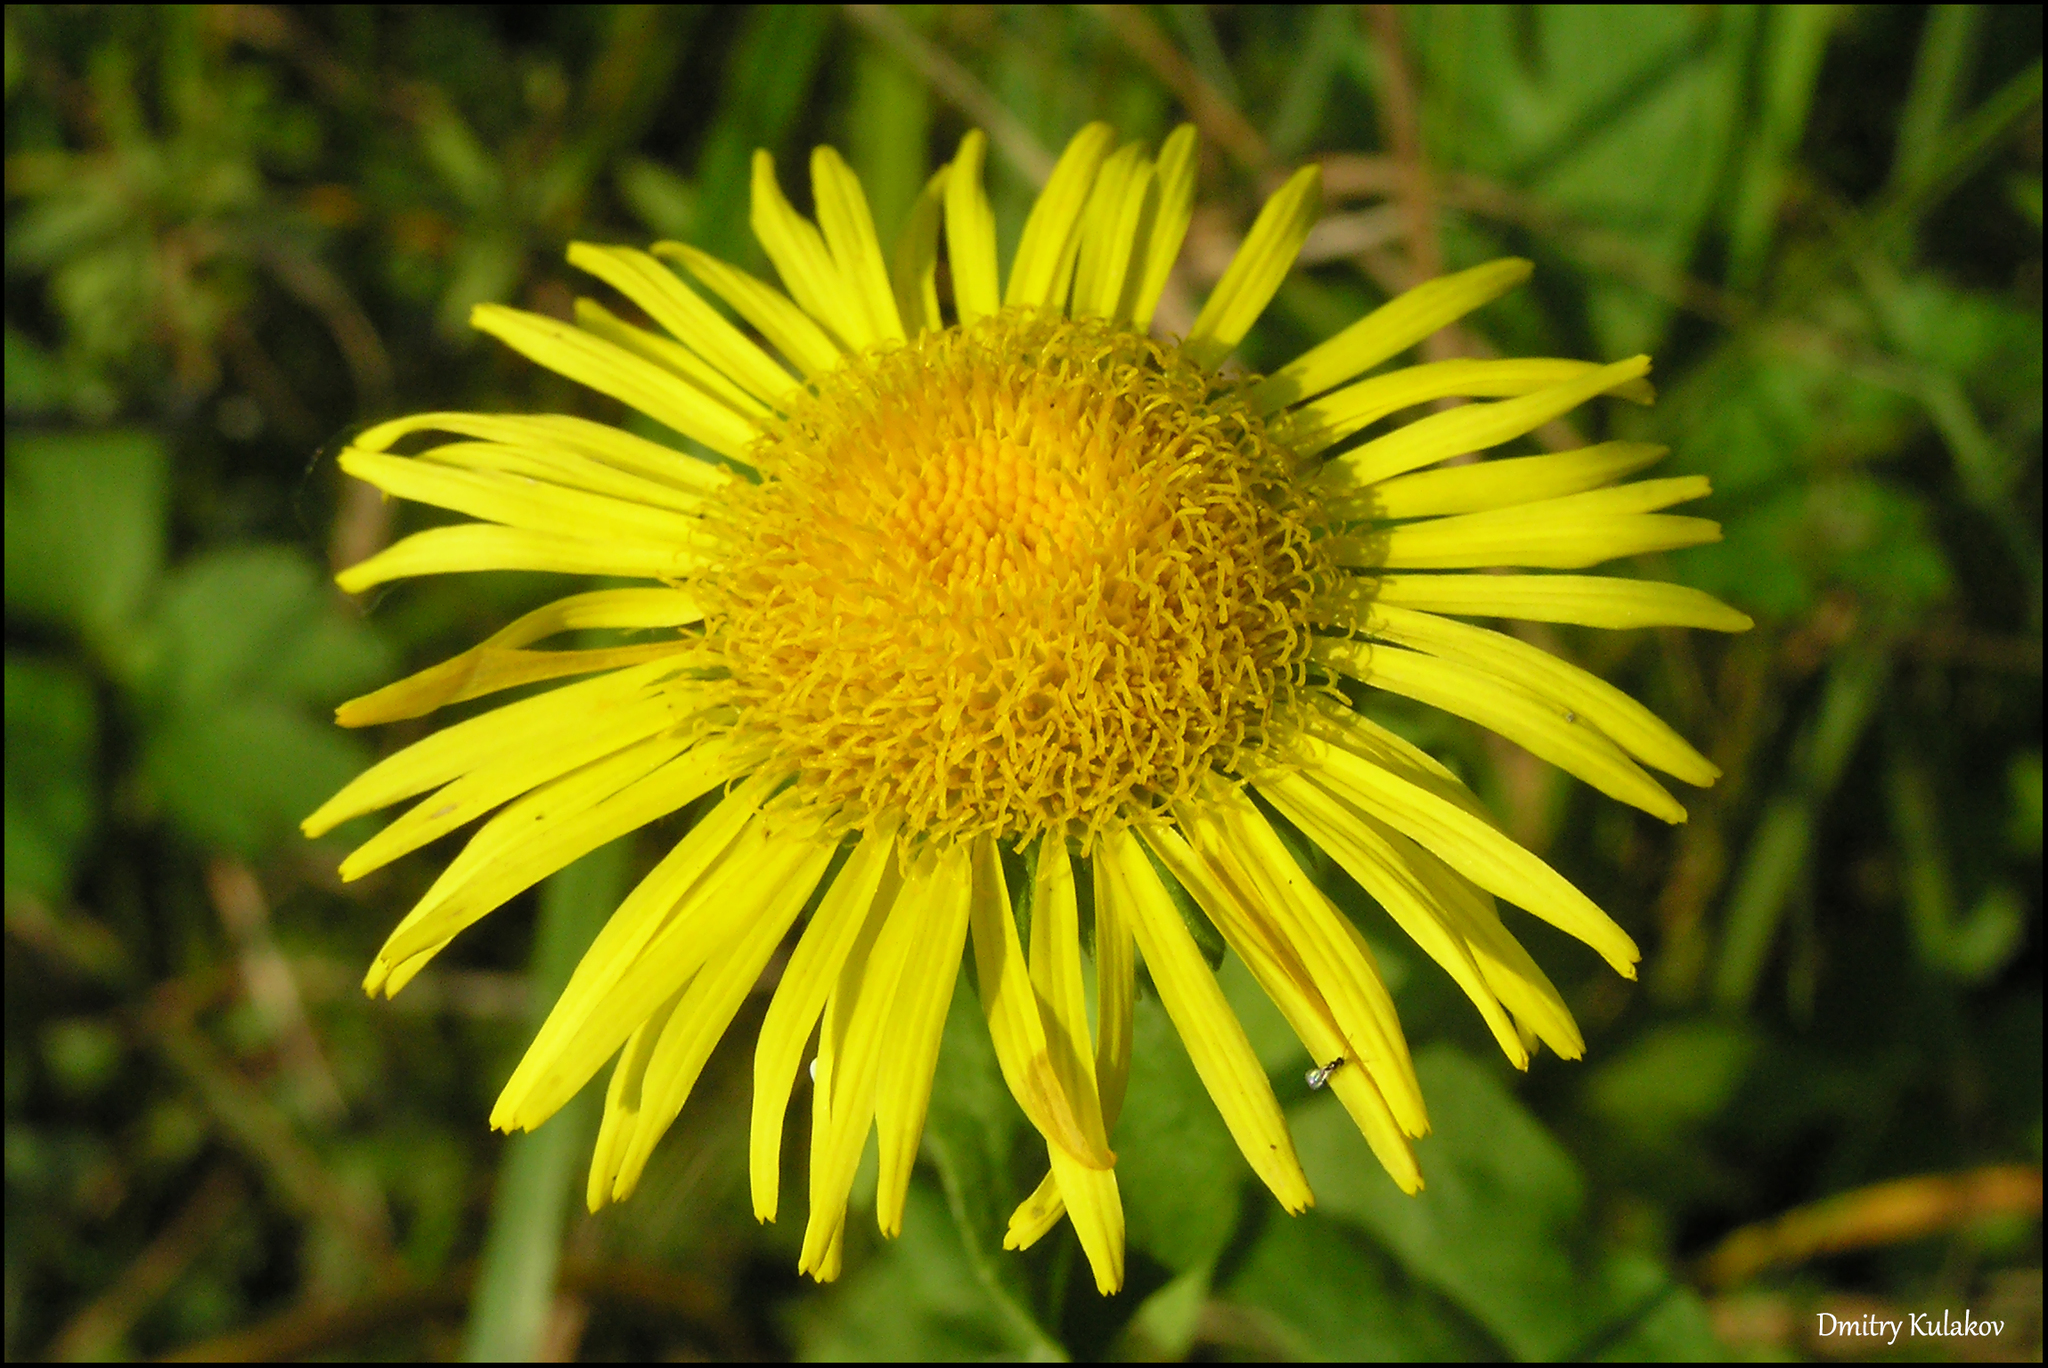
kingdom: Plantae
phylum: Tracheophyta
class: Magnoliopsida
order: Asterales
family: Asteraceae
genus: Pentanema
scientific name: Pentanema britannicum
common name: British elecampane
